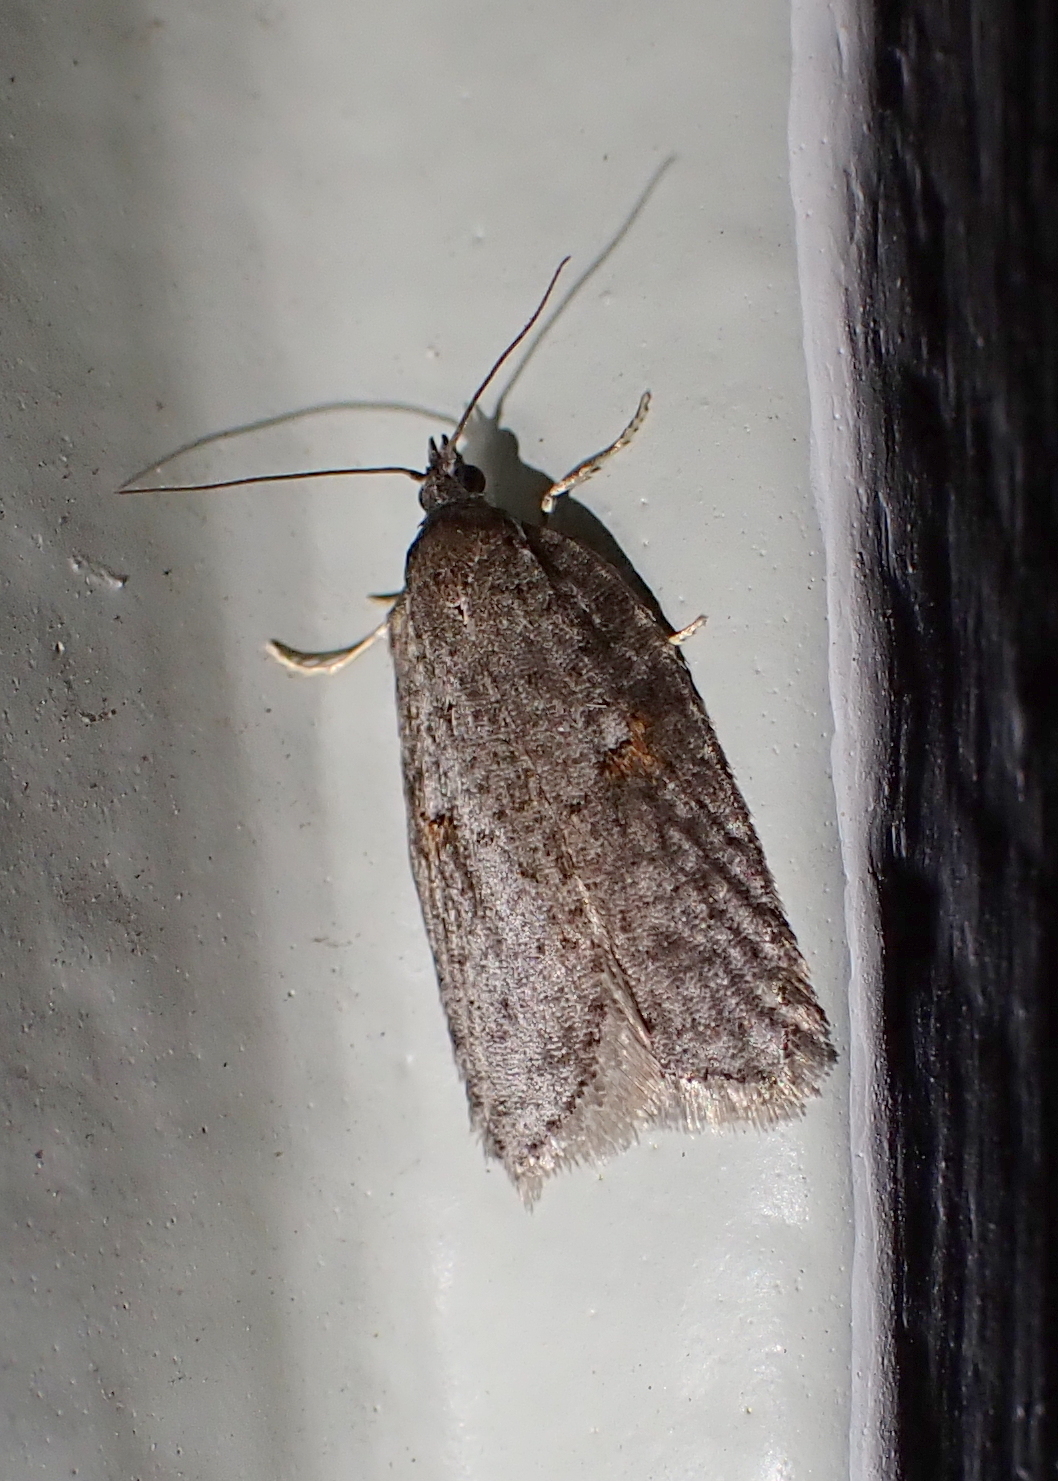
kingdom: Animalia
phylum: Arthropoda
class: Insecta
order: Lepidoptera
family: Tortricidae
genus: Acleris
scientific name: Acleris hudsoniana
